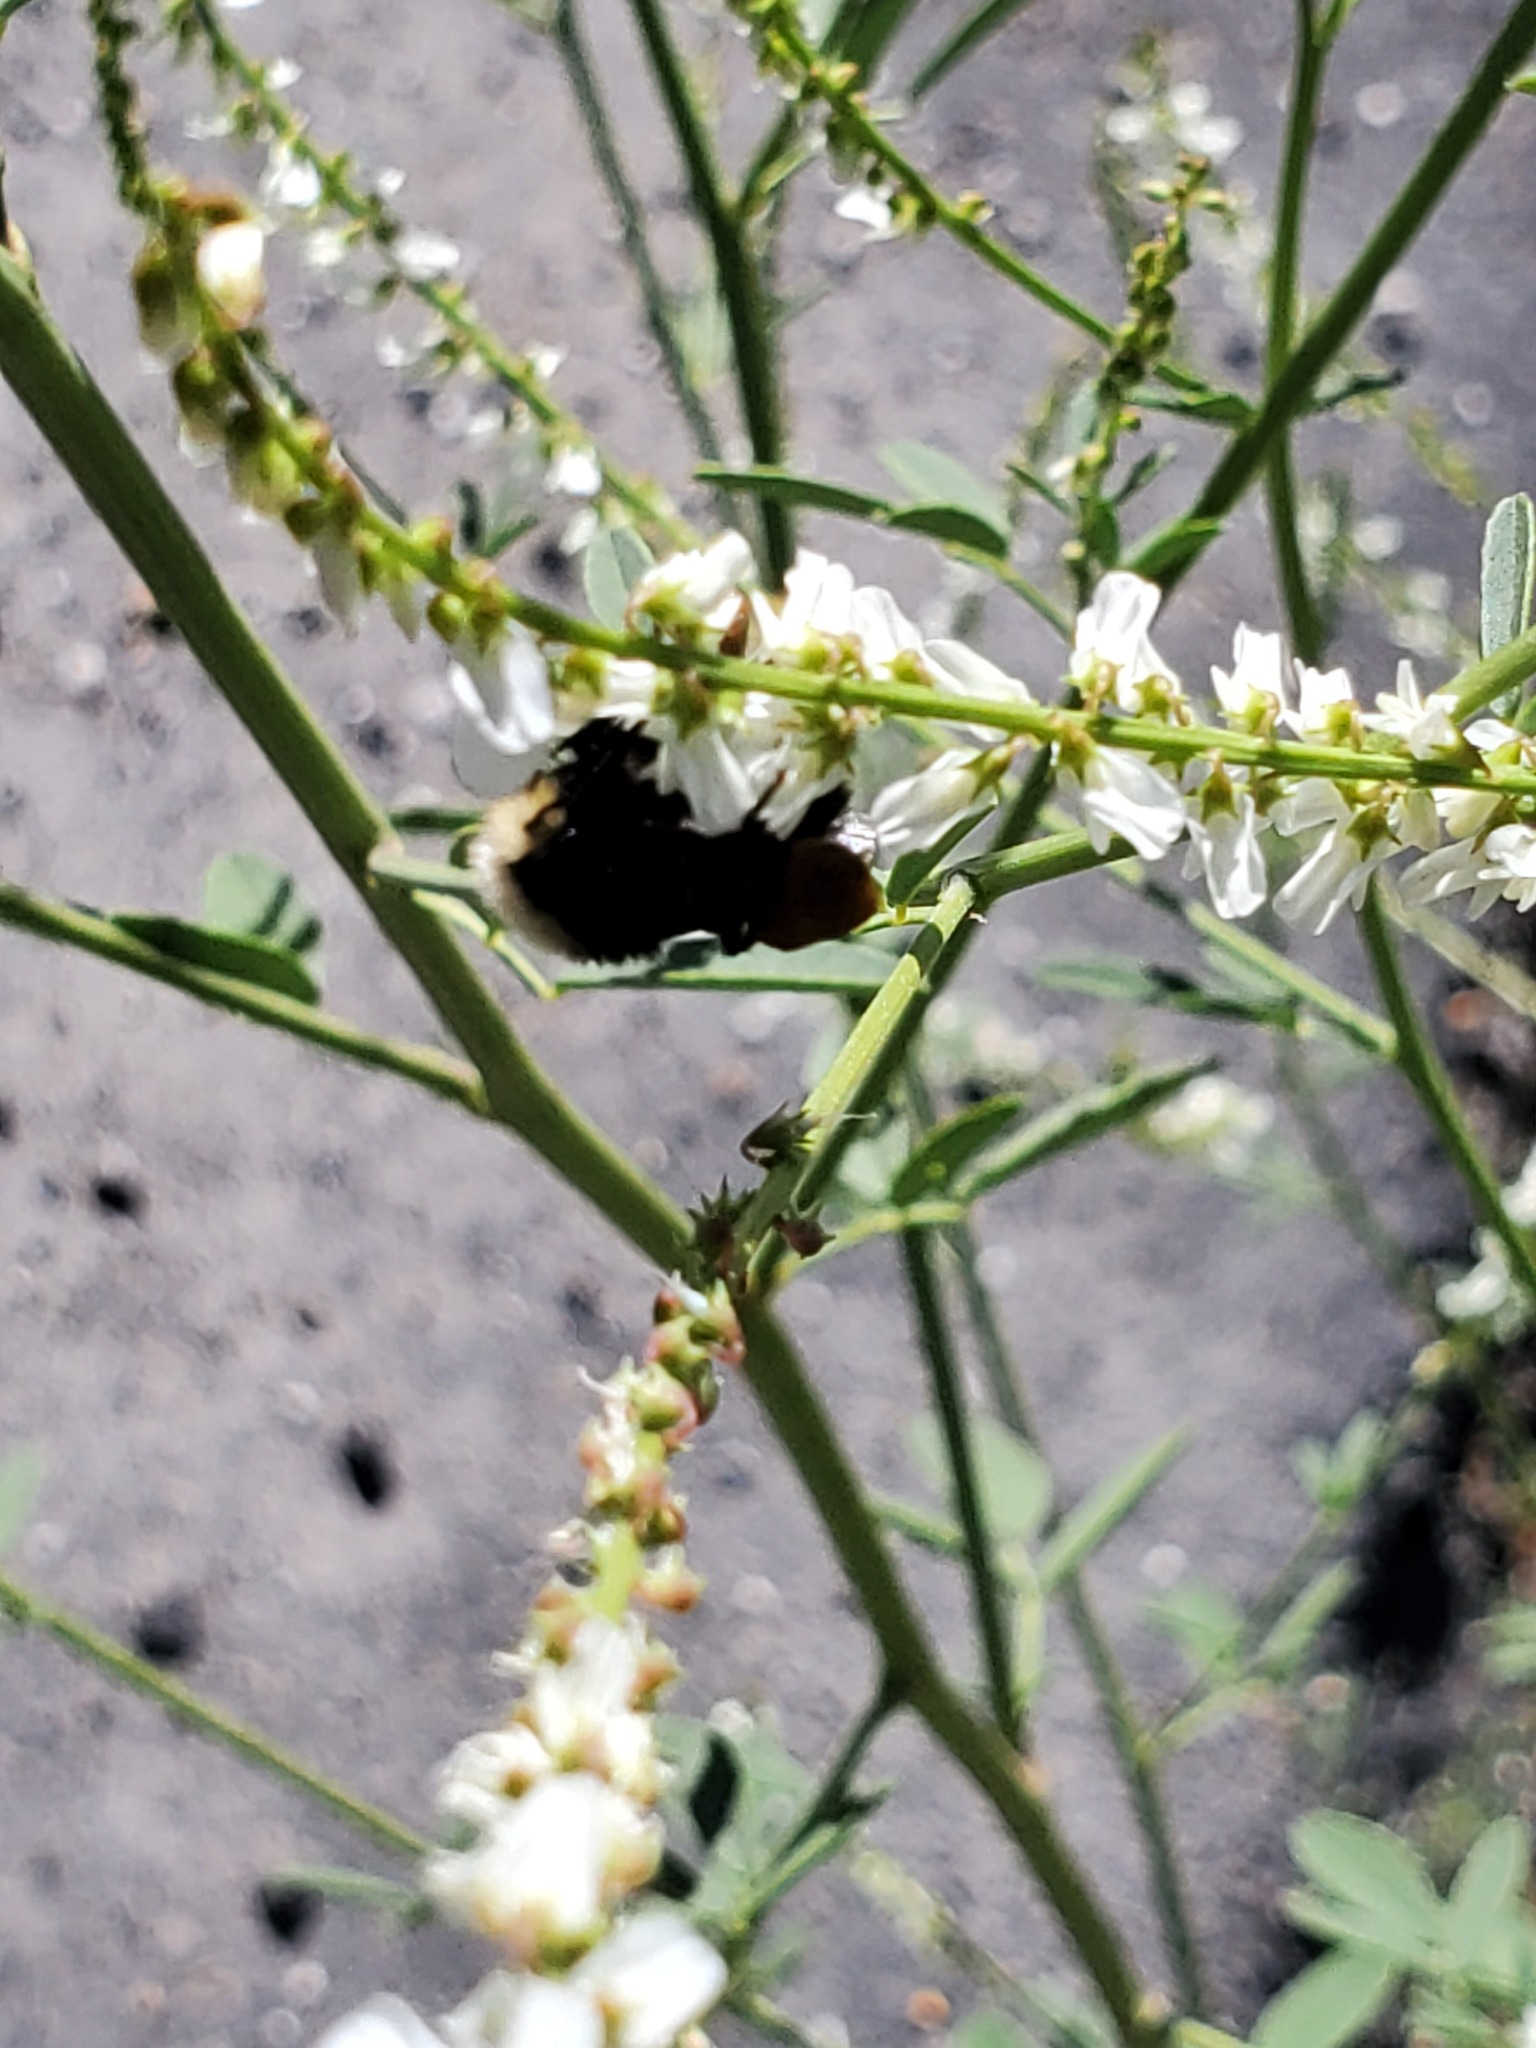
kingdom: Animalia
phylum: Arthropoda
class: Insecta
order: Hymenoptera
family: Apidae
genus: Bombus
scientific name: Bombus vosnesenskii
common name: Vosnesensky bumble bee
